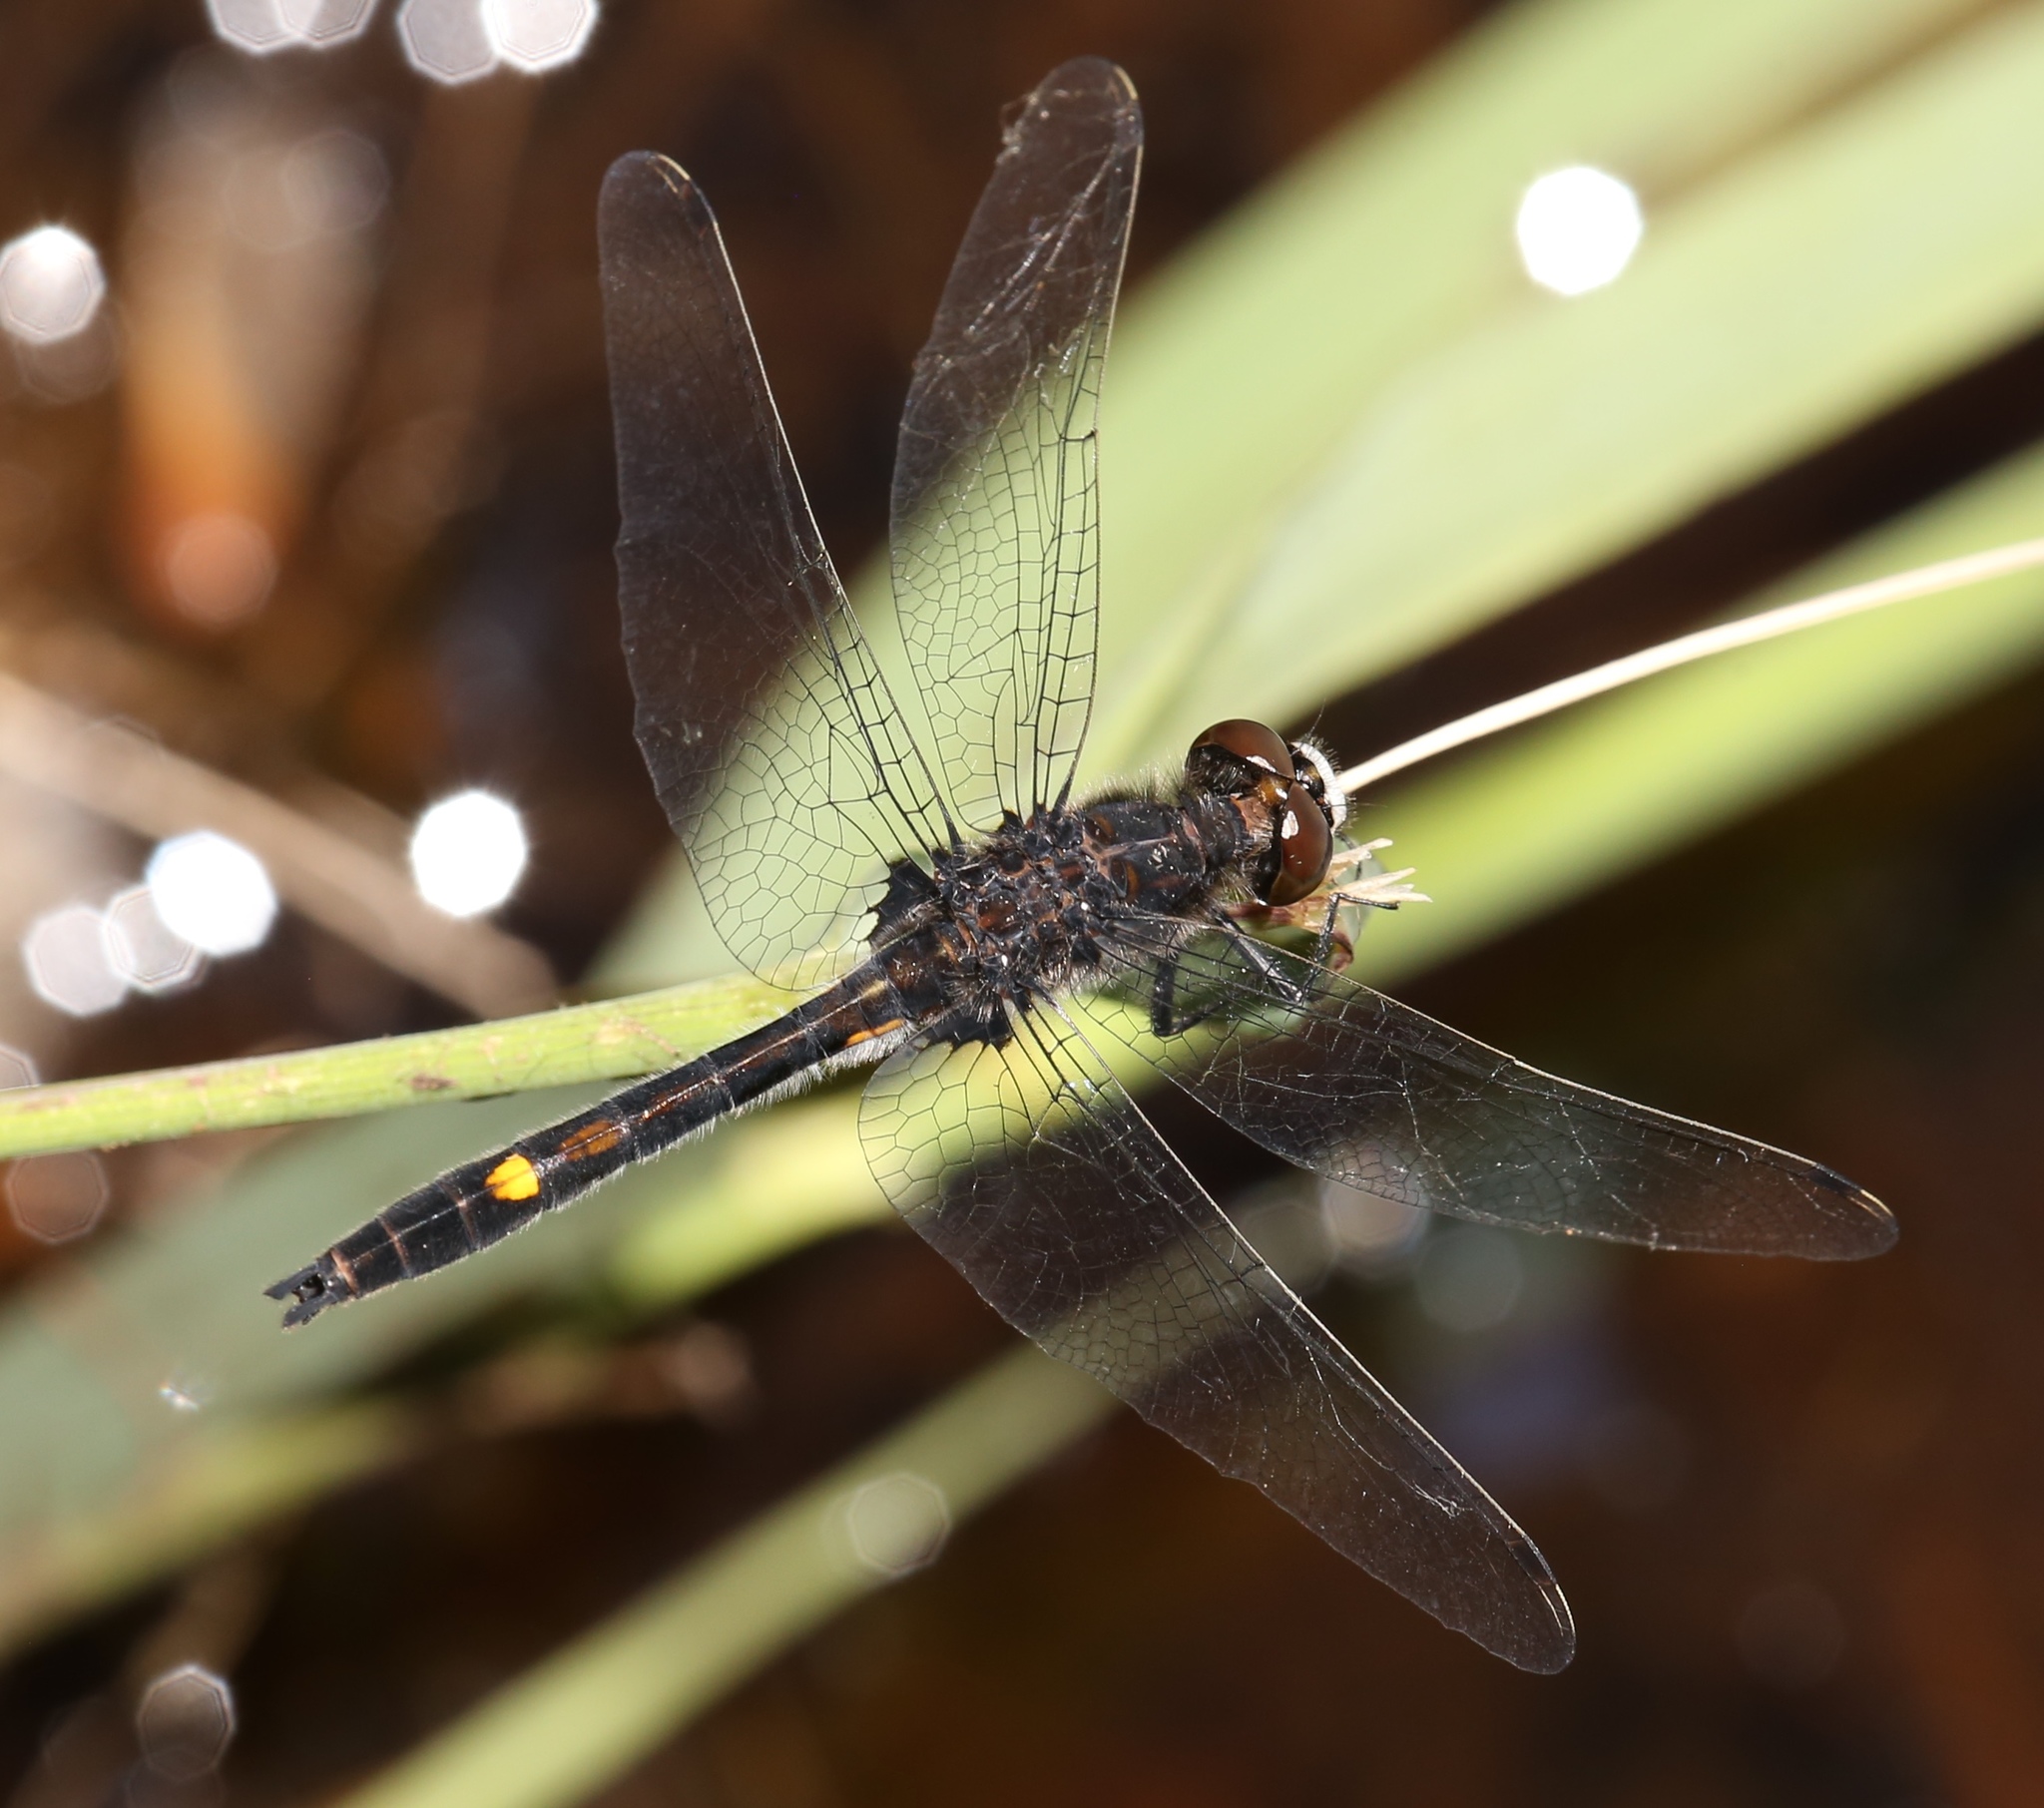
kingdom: Animalia
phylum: Arthropoda
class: Insecta
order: Odonata
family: Libellulidae
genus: Leucorrhinia
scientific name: Leucorrhinia intacta
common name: Dot-tailed whiteface
